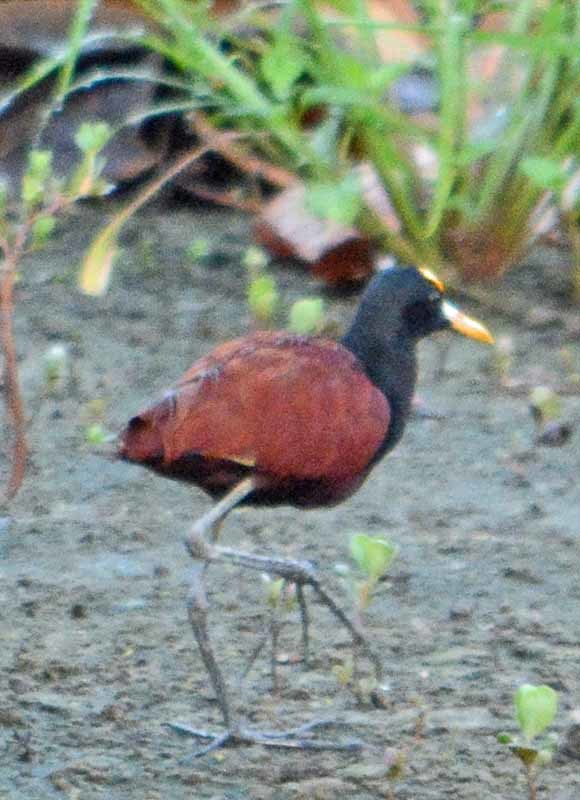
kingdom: Animalia
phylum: Chordata
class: Aves
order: Charadriiformes
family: Jacanidae
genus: Jacana
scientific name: Jacana spinosa
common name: Northern jacana
